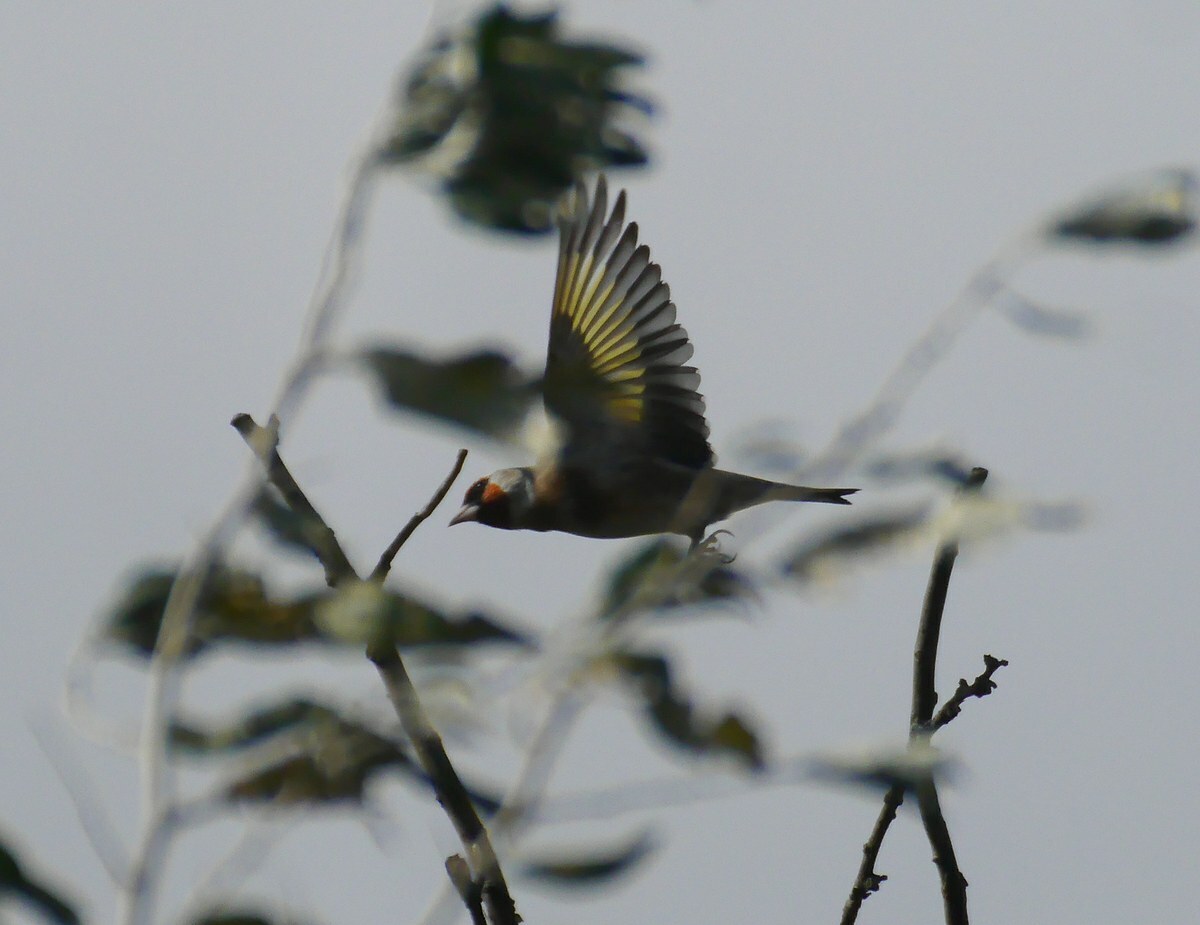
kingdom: Animalia
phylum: Chordata
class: Aves
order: Passeriformes
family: Fringillidae
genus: Carduelis
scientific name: Carduelis carduelis
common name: European goldfinch
